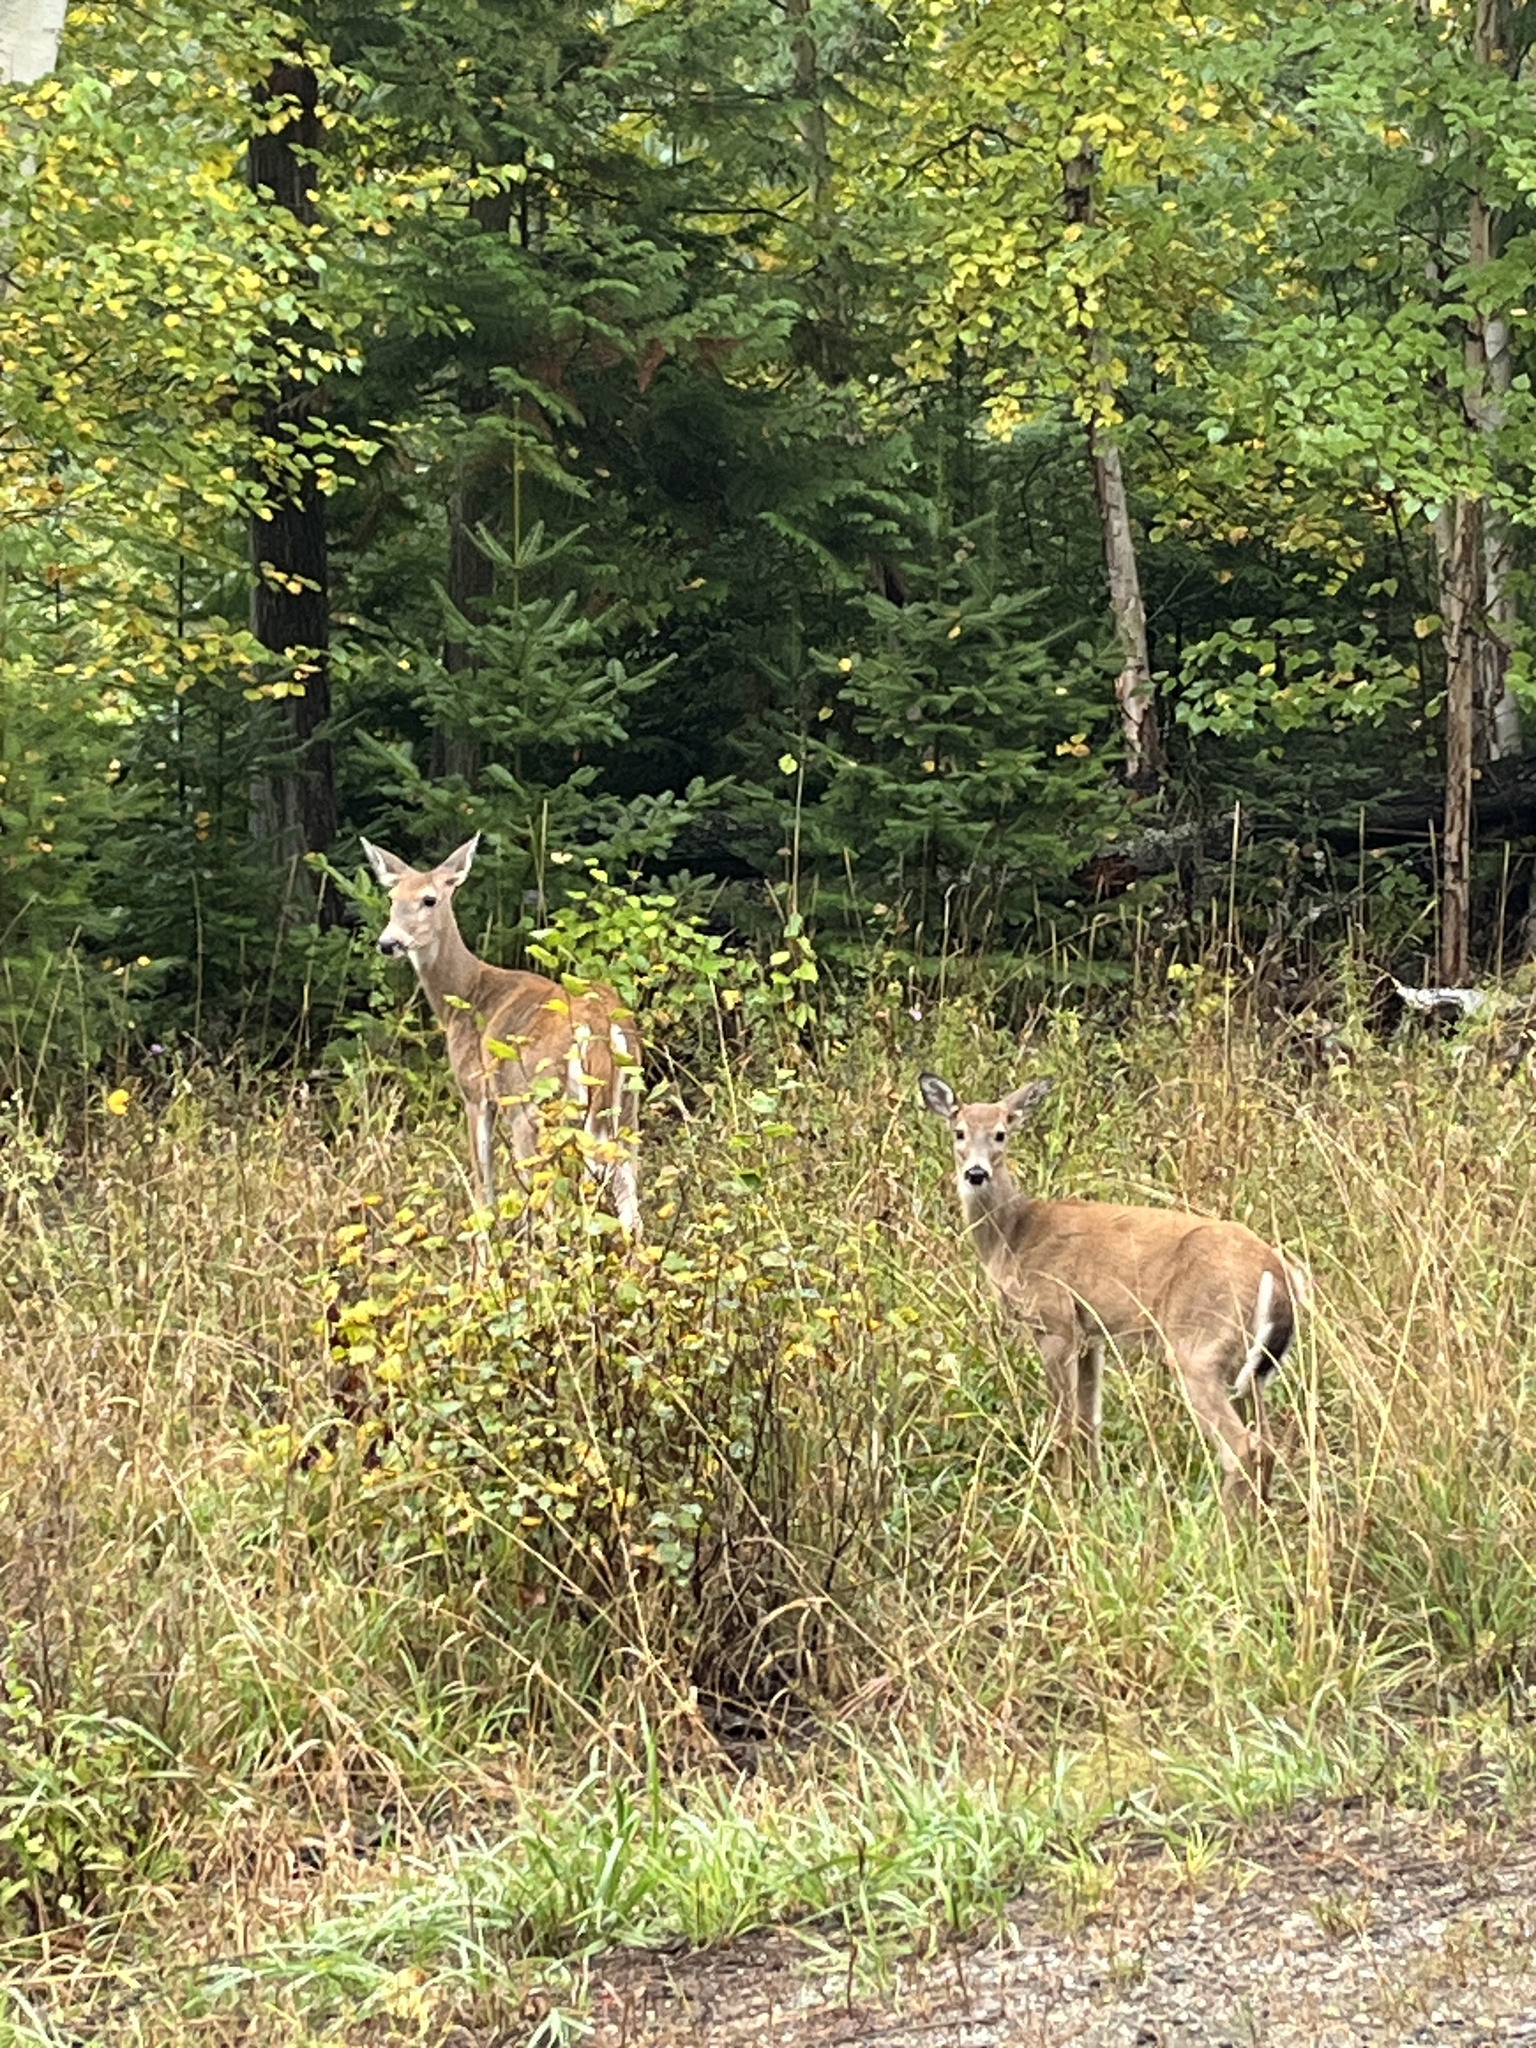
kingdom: Animalia
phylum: Chordata
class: Mammalia
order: Artiodactyla
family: Cervidae
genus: Odocoileus
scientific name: Odocoileus virginianus
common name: White-tailed deer
